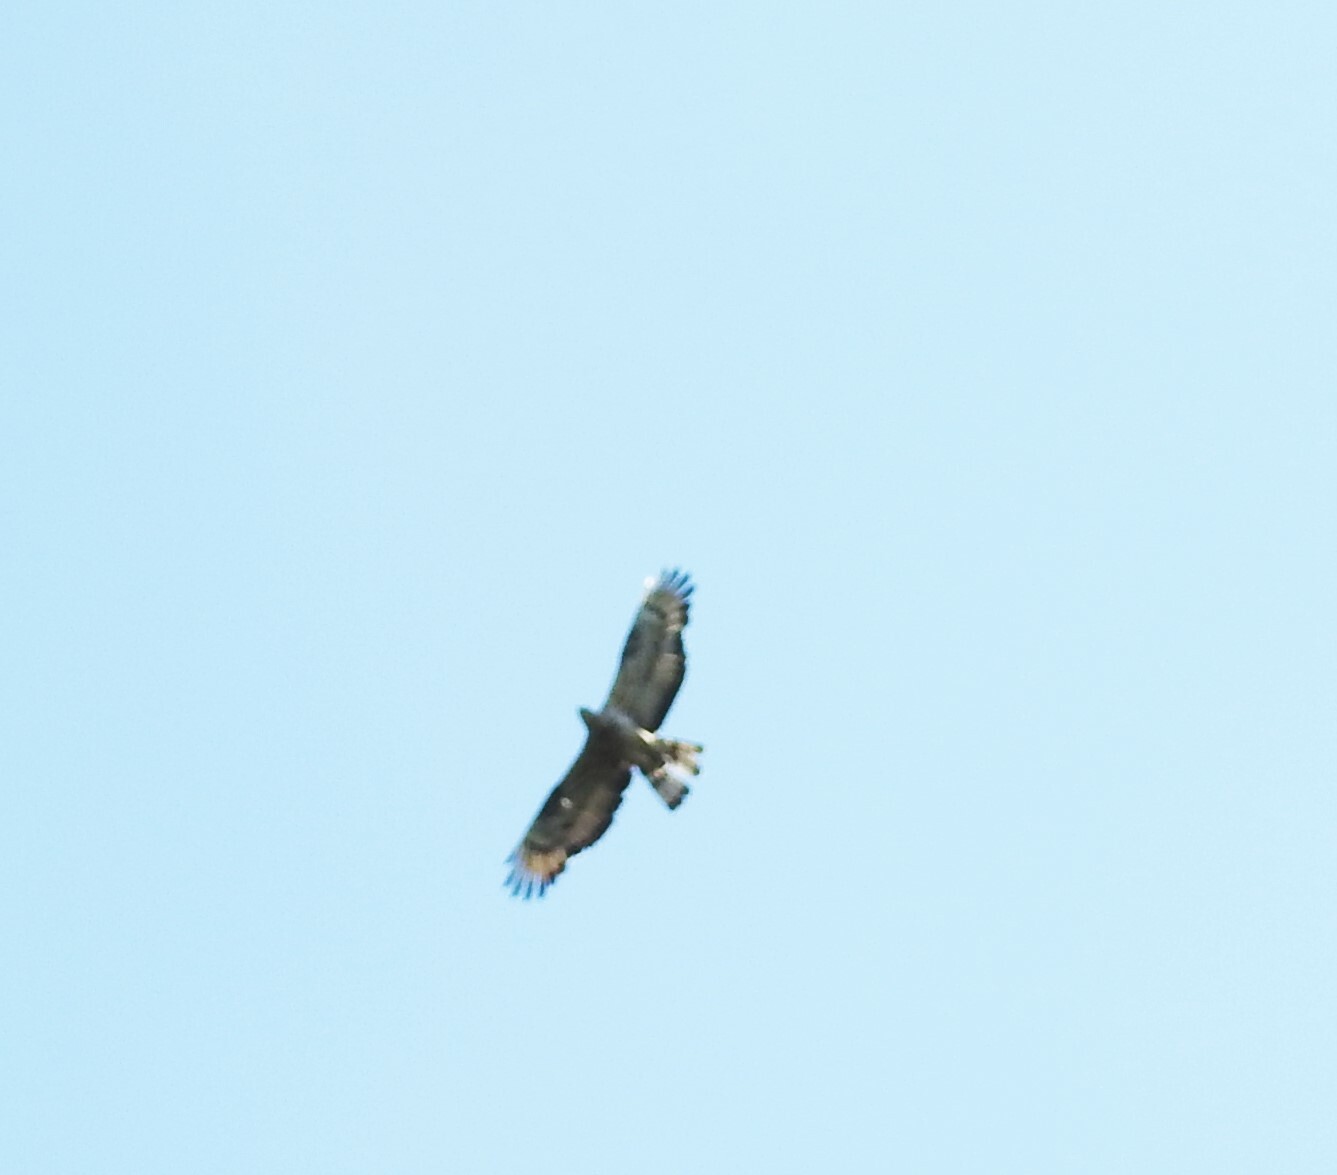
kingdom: Animalia
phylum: Chordata
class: Aves
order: Accipitriformes
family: Accipitridae
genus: Pernis
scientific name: Pernis apivorus
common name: European honey buzzard
